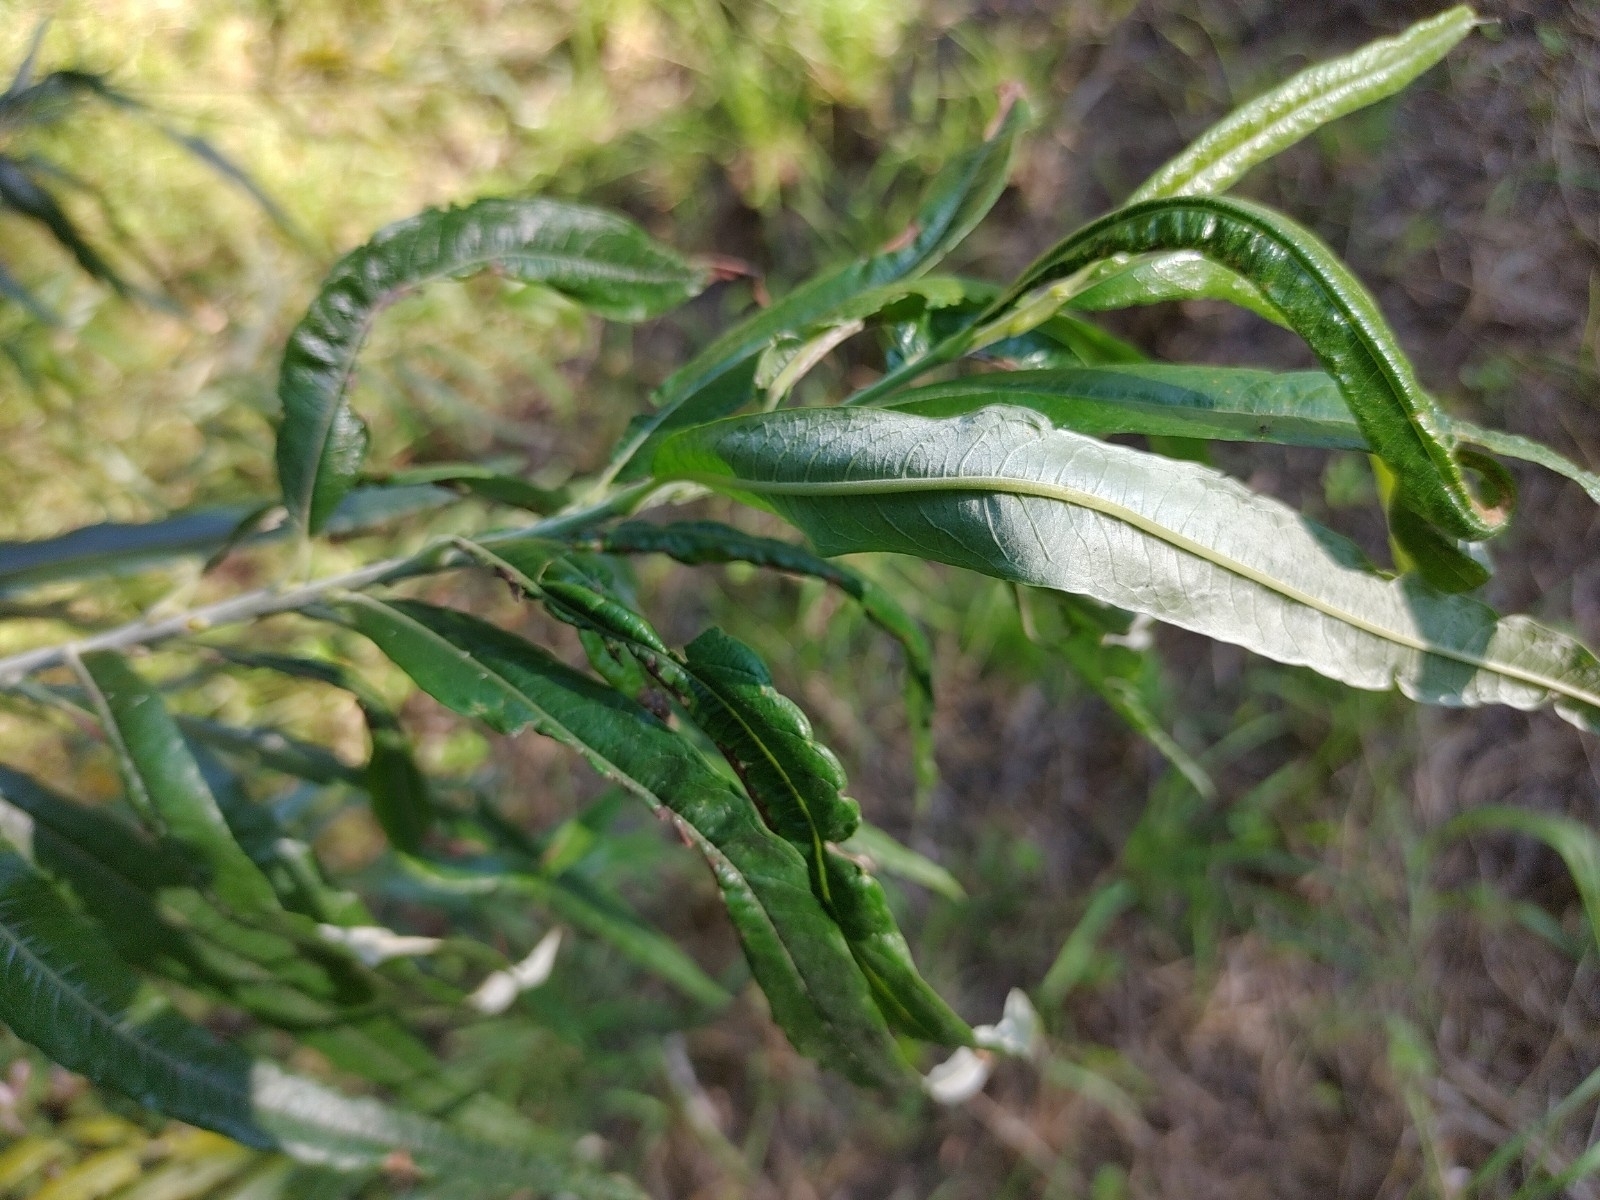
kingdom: Plantae
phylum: Tracheophyta
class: Magnoliopsida
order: Malpighiales
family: Salicaceae
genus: Salix
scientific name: Salix viminalis
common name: Osier
